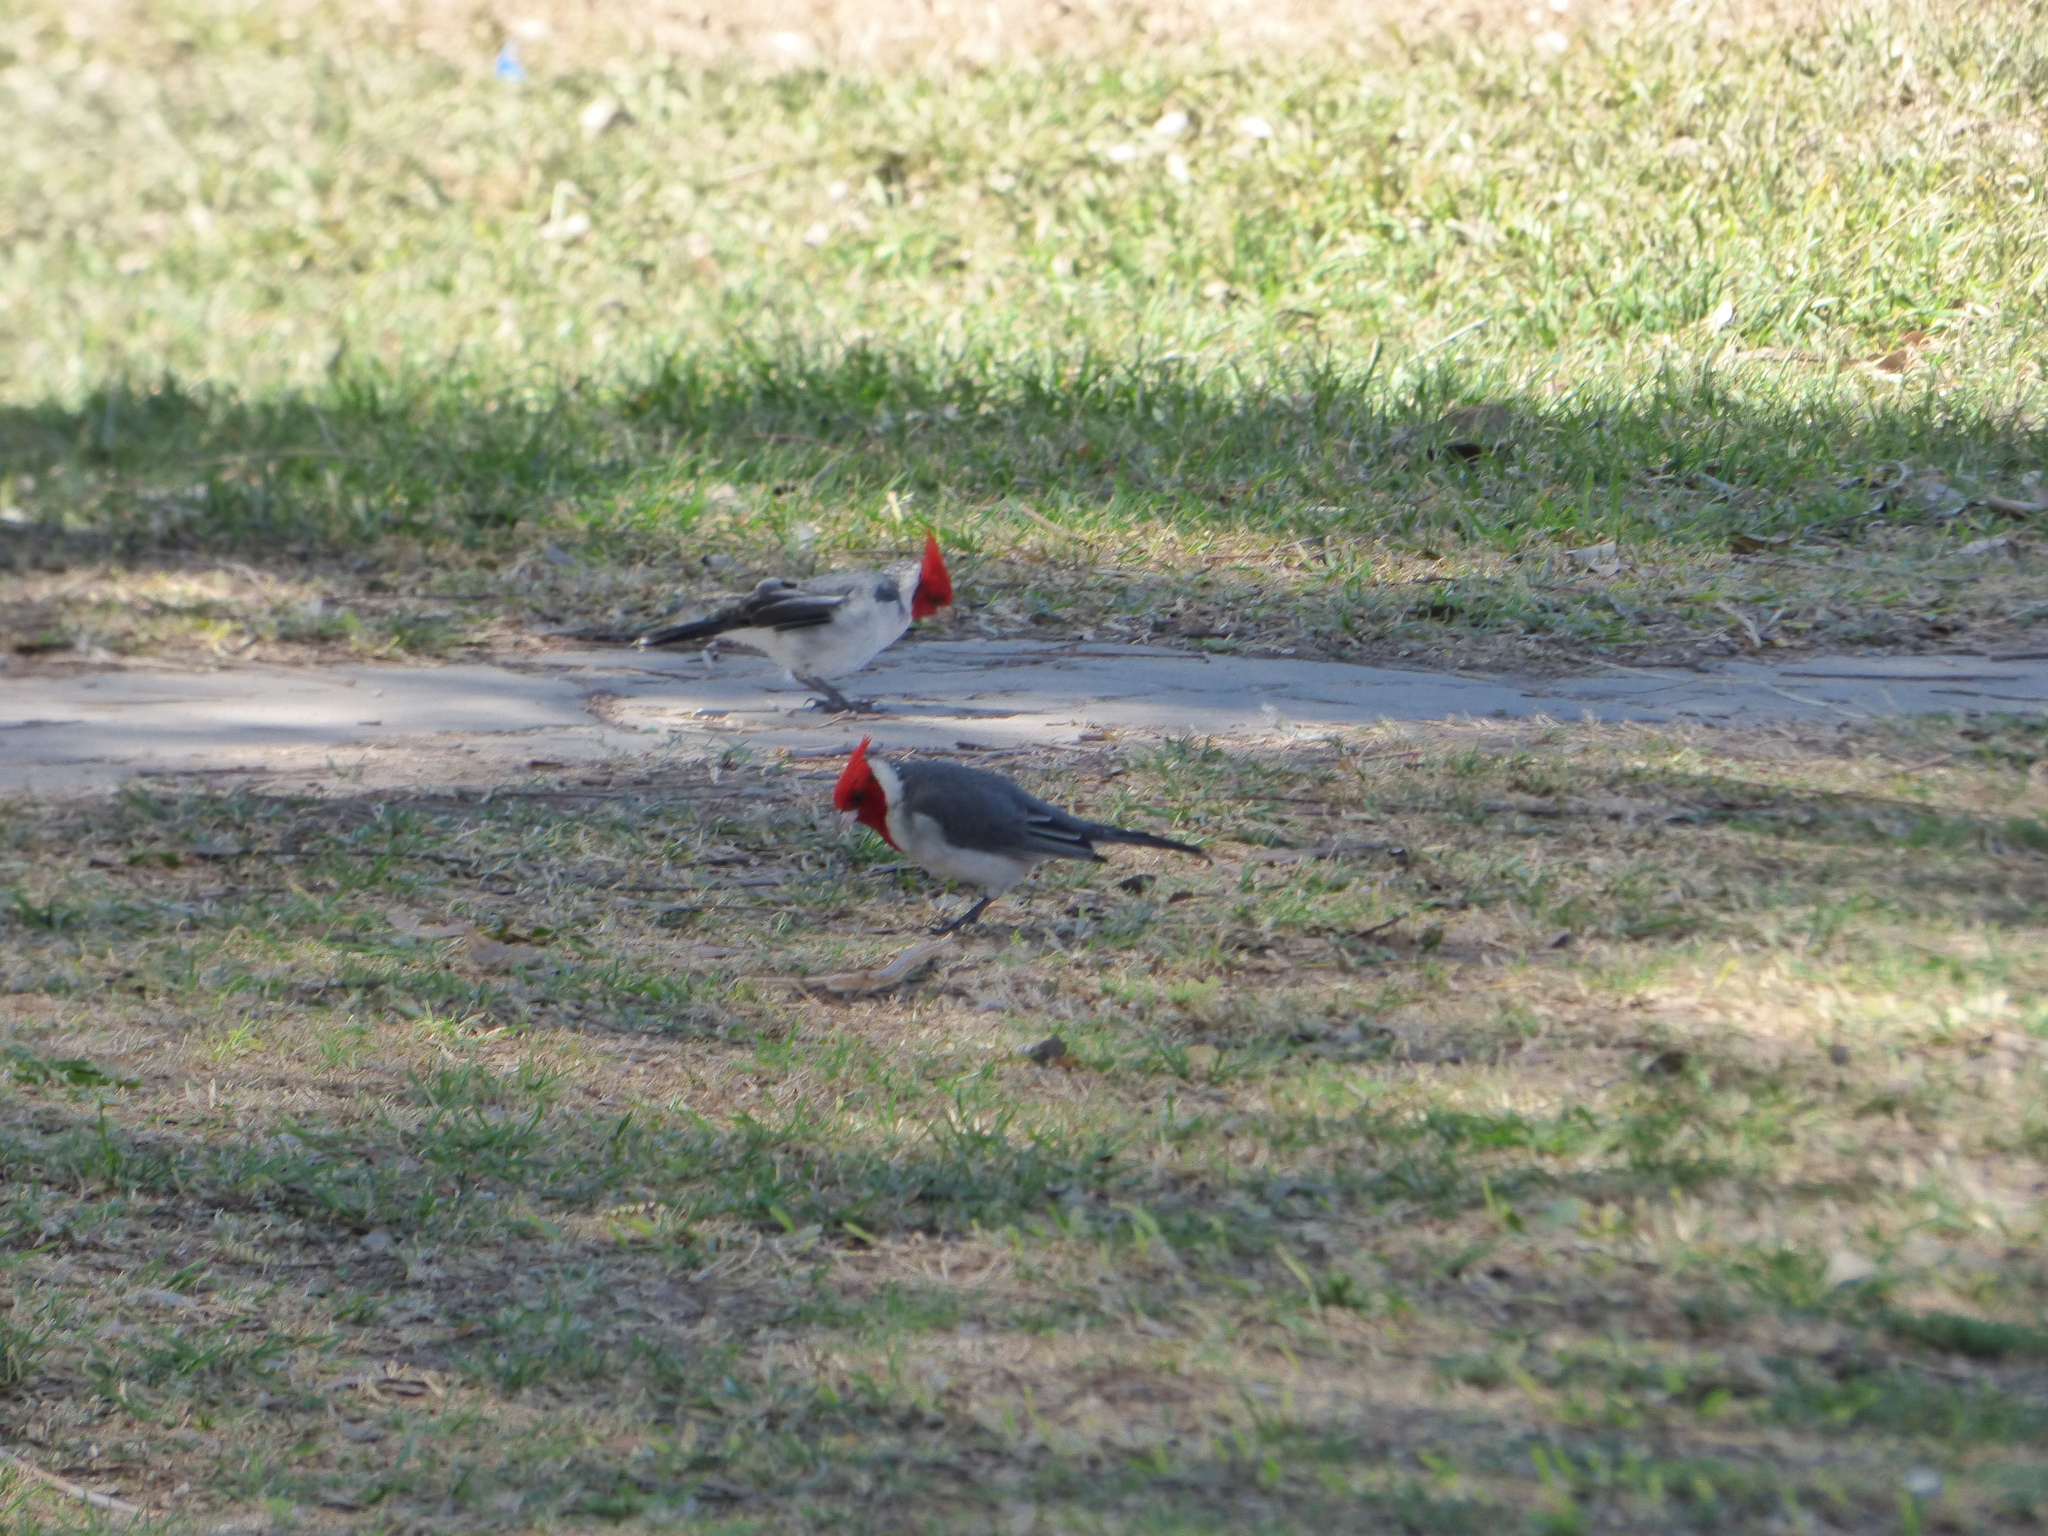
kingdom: Animalia
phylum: Chordata
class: Aves
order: Passeriformes
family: Thraupidae
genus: Paroaria
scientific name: Paroaria coronata
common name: Red-crested cardinal
